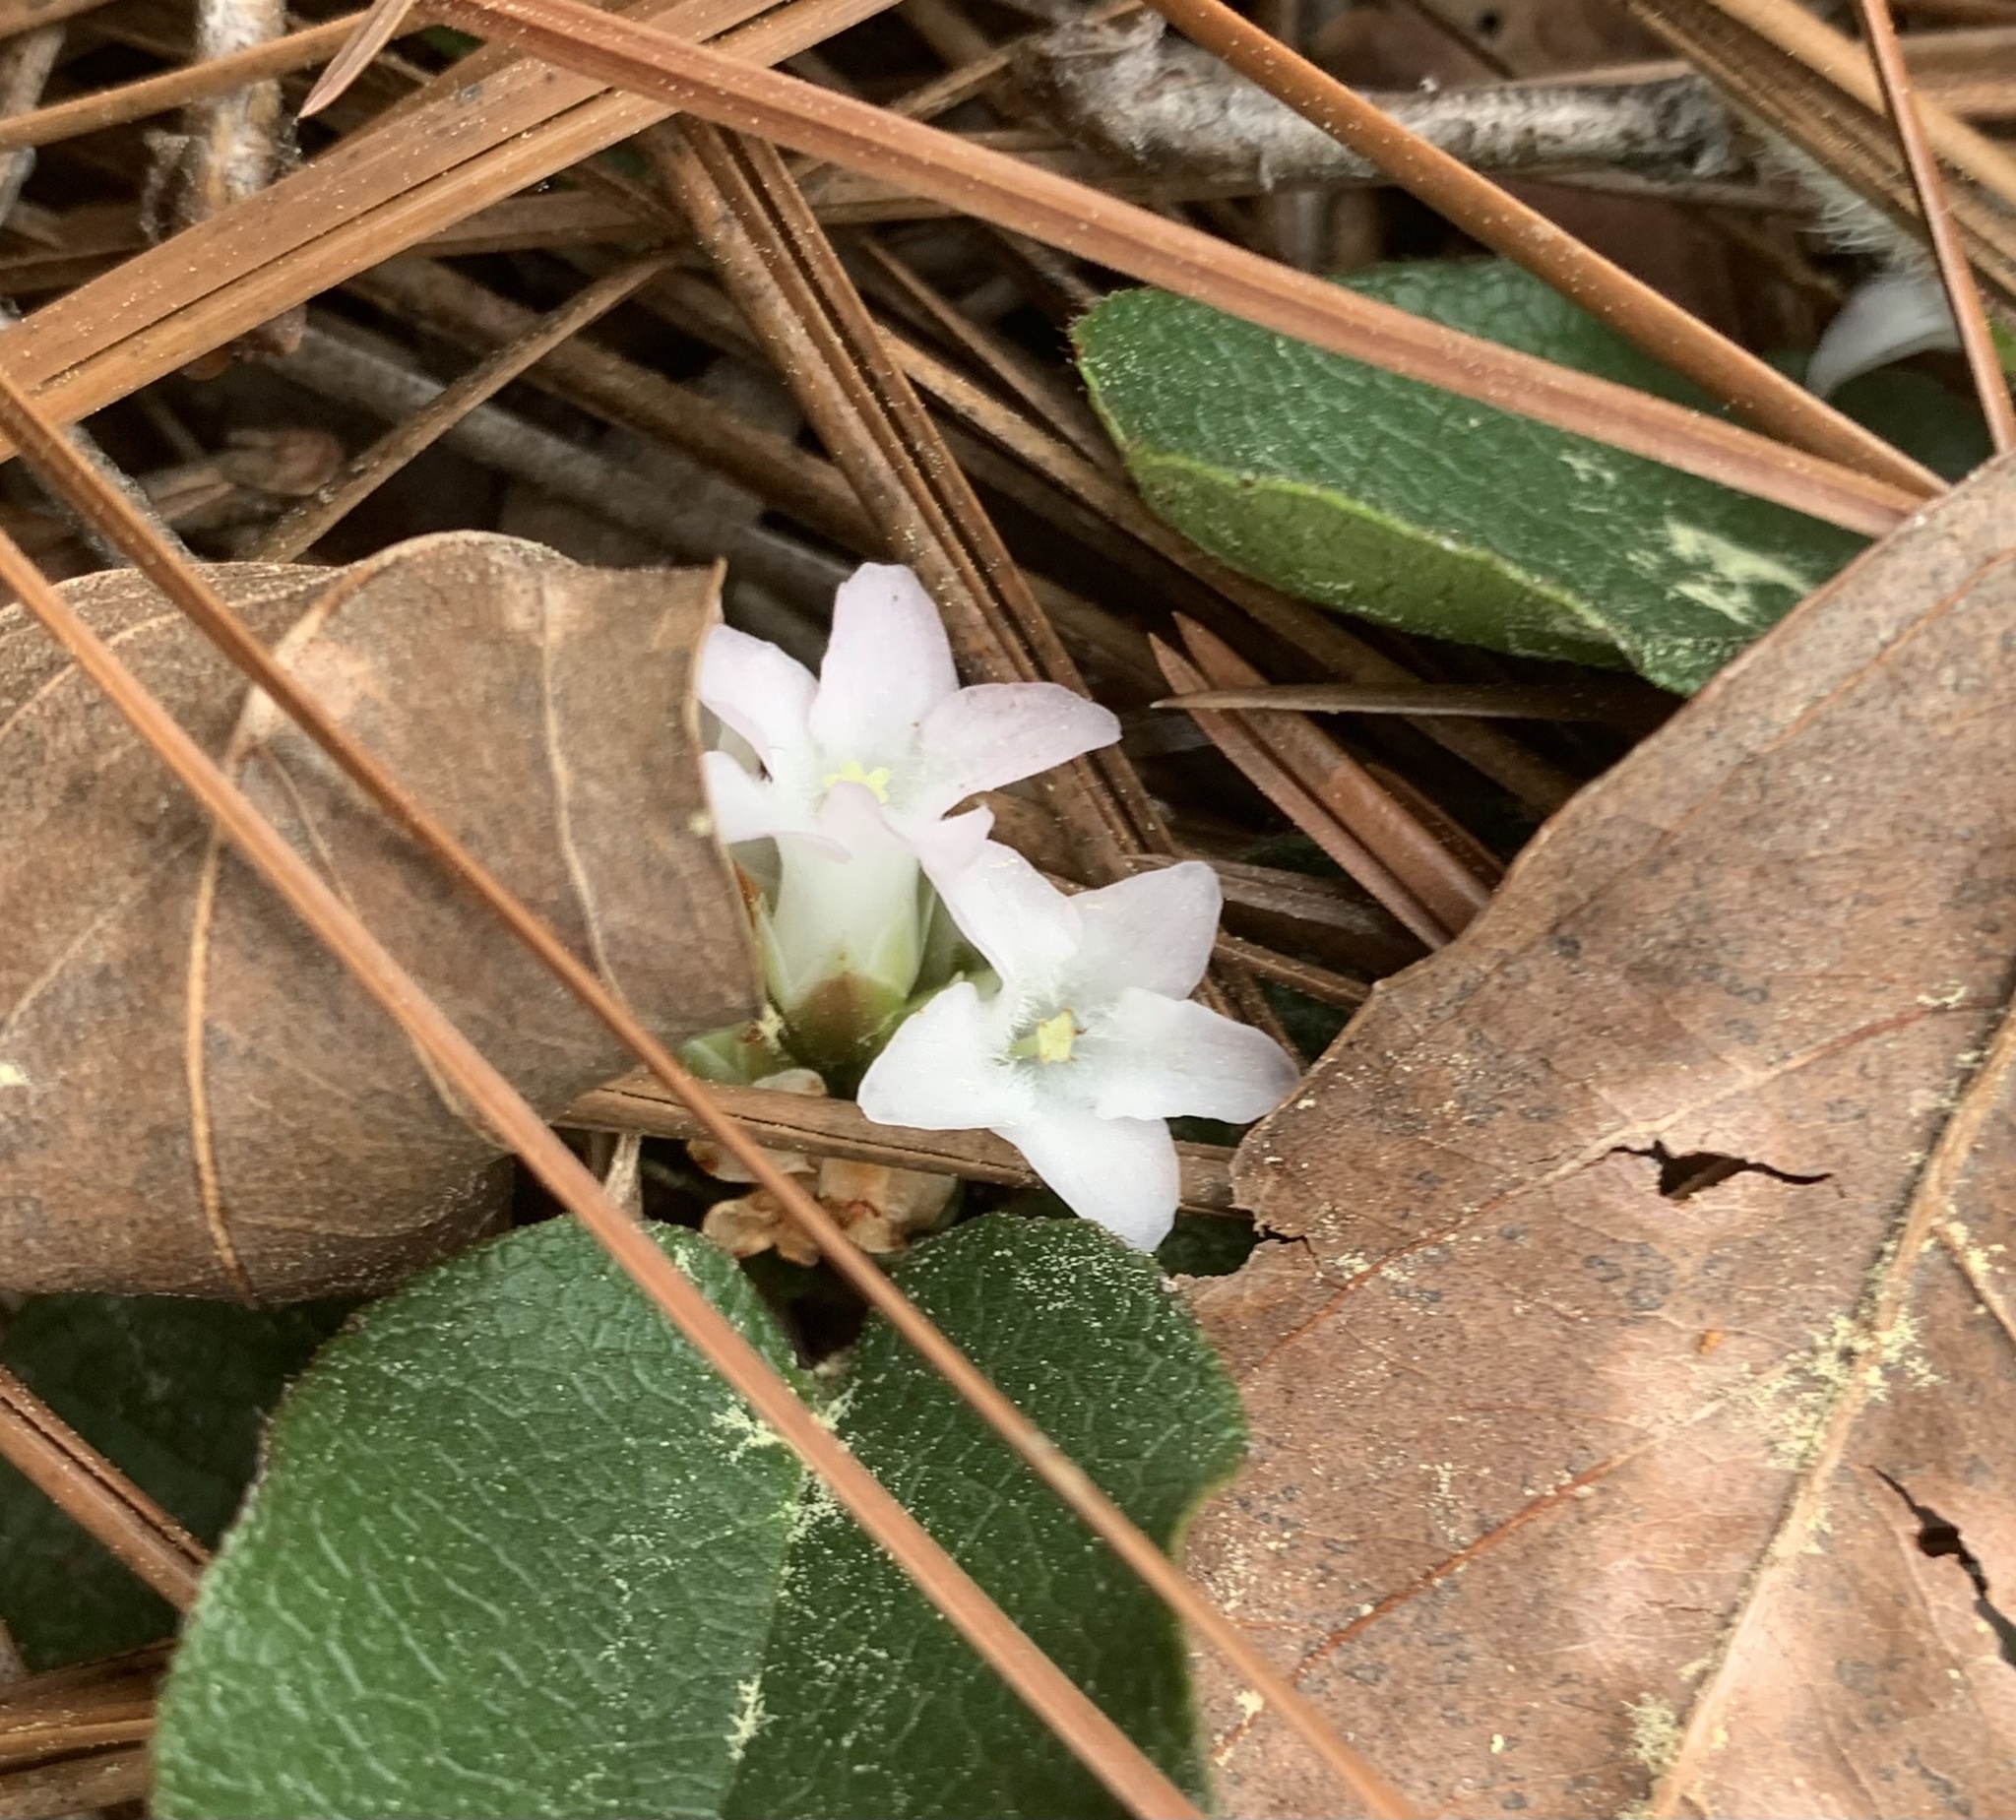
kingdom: Plantae
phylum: Tracheophyta
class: Magnoliopsida
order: Ericales
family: Ericaceae
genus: Epigaea
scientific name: Epigaea repens
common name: Gravelroot
